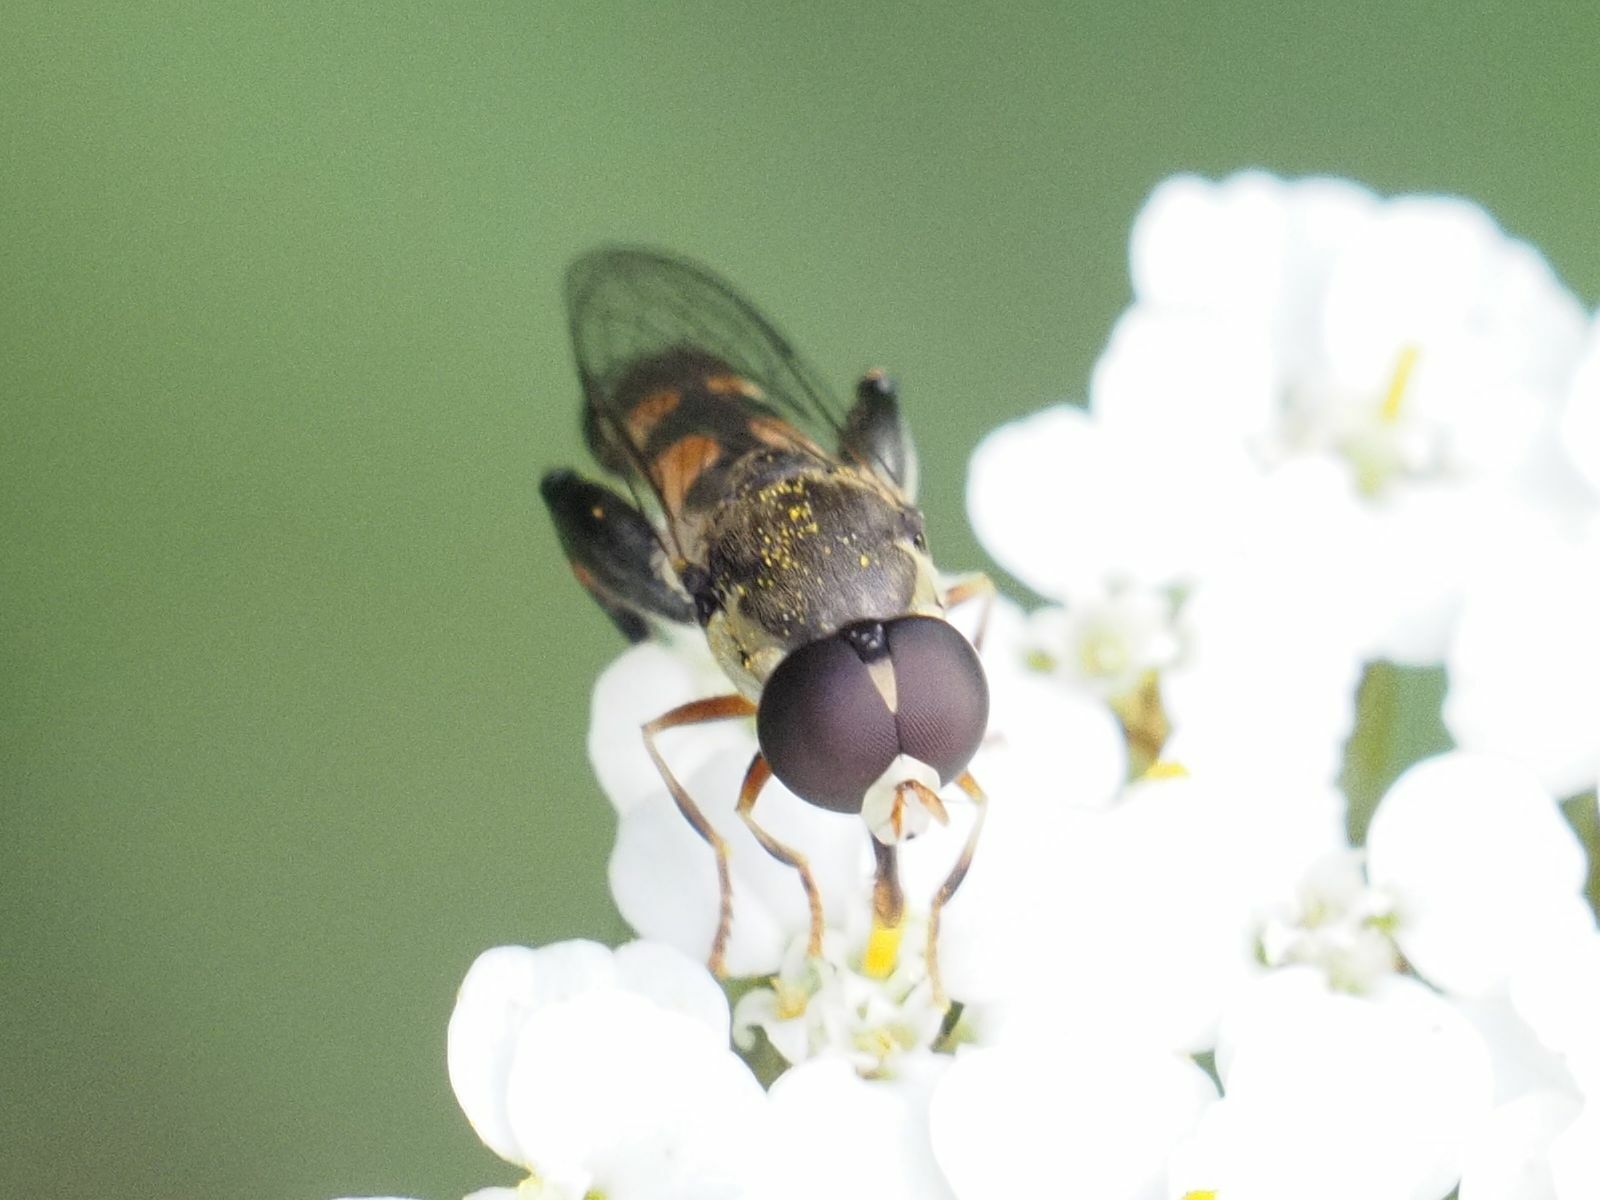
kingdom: Animalia
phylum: Arthropoda
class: Insecta
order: Diptera
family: Syrphidae
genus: Syritta
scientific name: Syritta pipiens
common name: Hover fly
